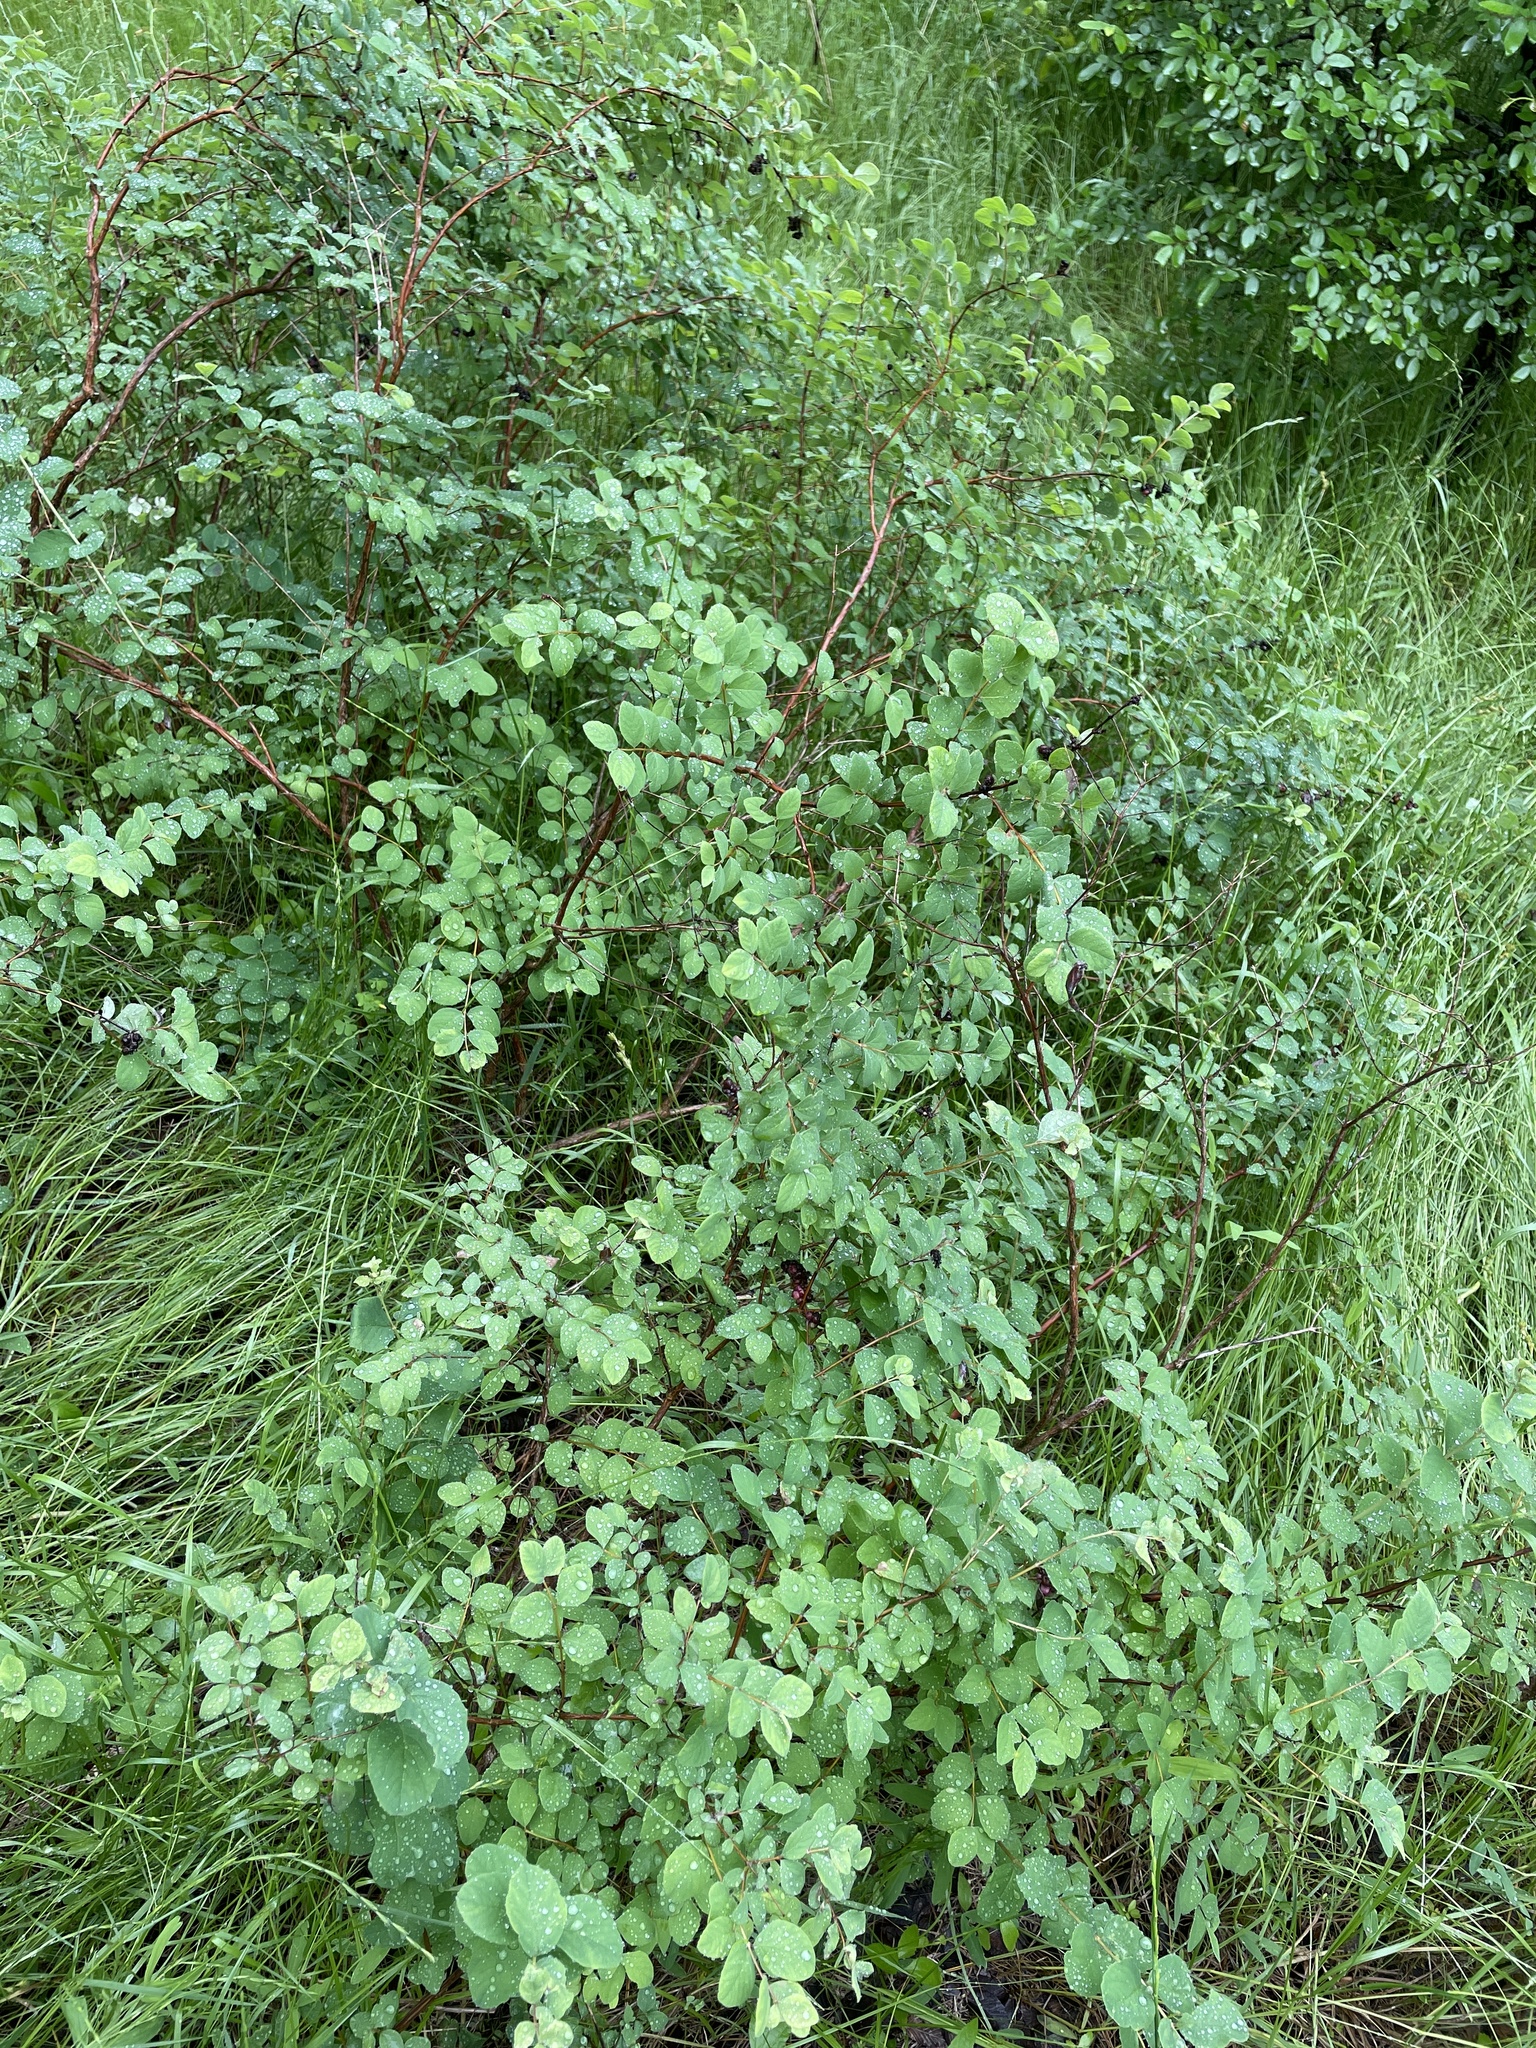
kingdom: Plantae
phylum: Tracheophyta
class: Magnoliopsida
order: Dipsacales
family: Caprifoliaceae
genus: Symphoricarpos
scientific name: Symphoricarpos orbiculatus
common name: Coralberry
